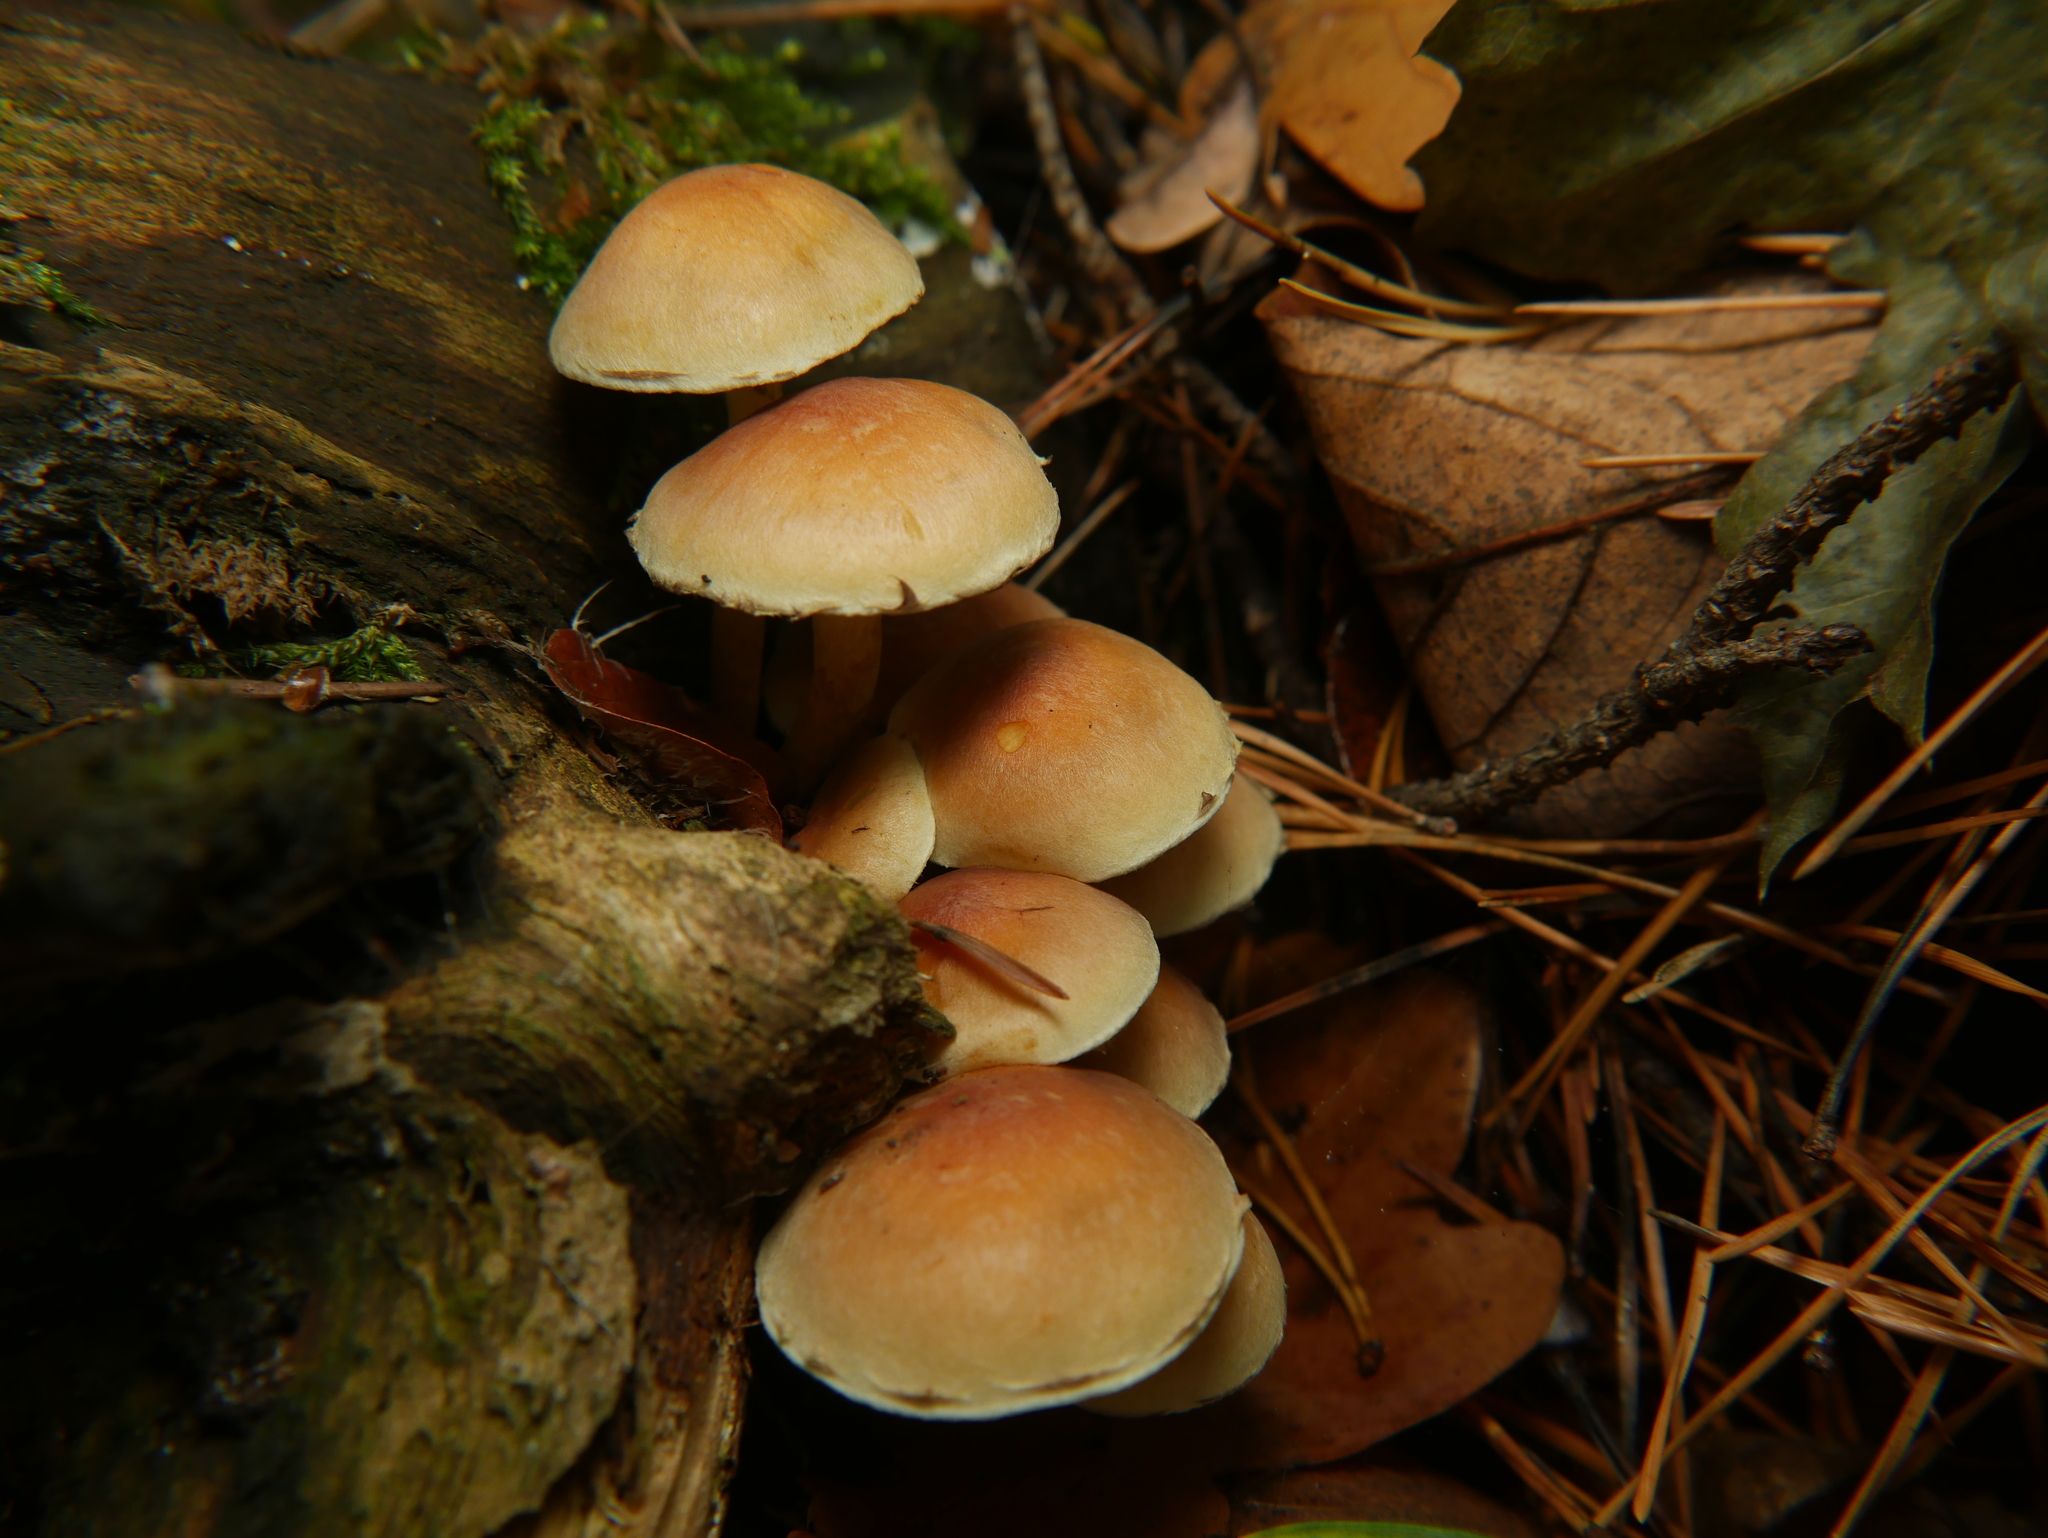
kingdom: Fungi
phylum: Basidiomycota
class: Agaricomycetes
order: Agaricales
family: Strophariaceae
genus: Hypholoma
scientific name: Hypholoma fasciculare
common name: Sulphur tuft
